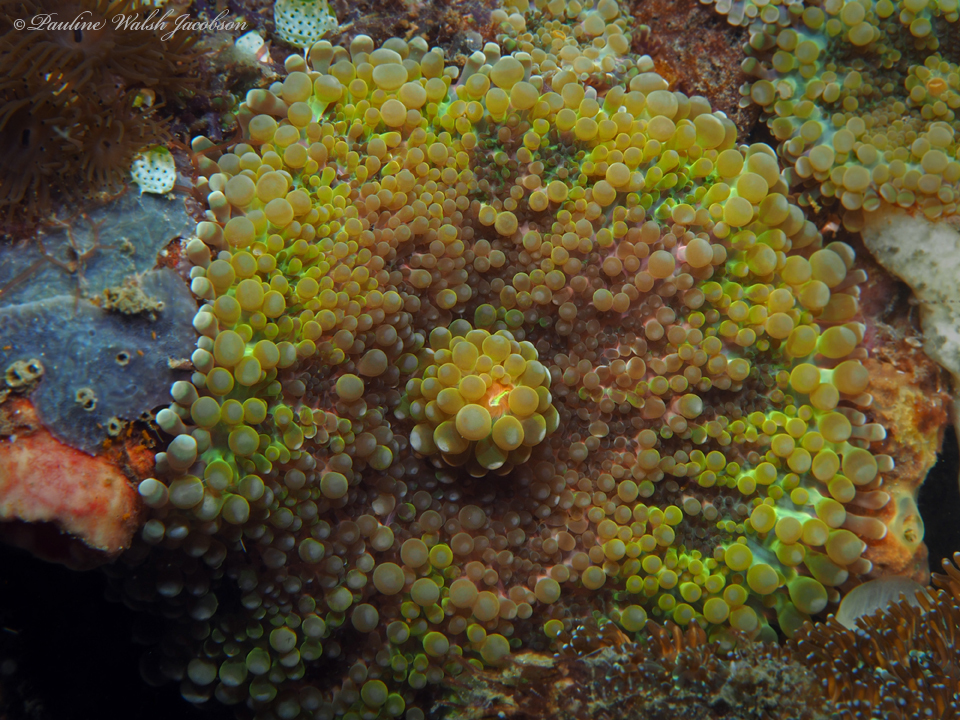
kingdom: Animalia
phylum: Cnidaria
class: Anthozoa
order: Corallimorpharia
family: Ricordeidae
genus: Ricordea
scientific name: Ricordea yuma
